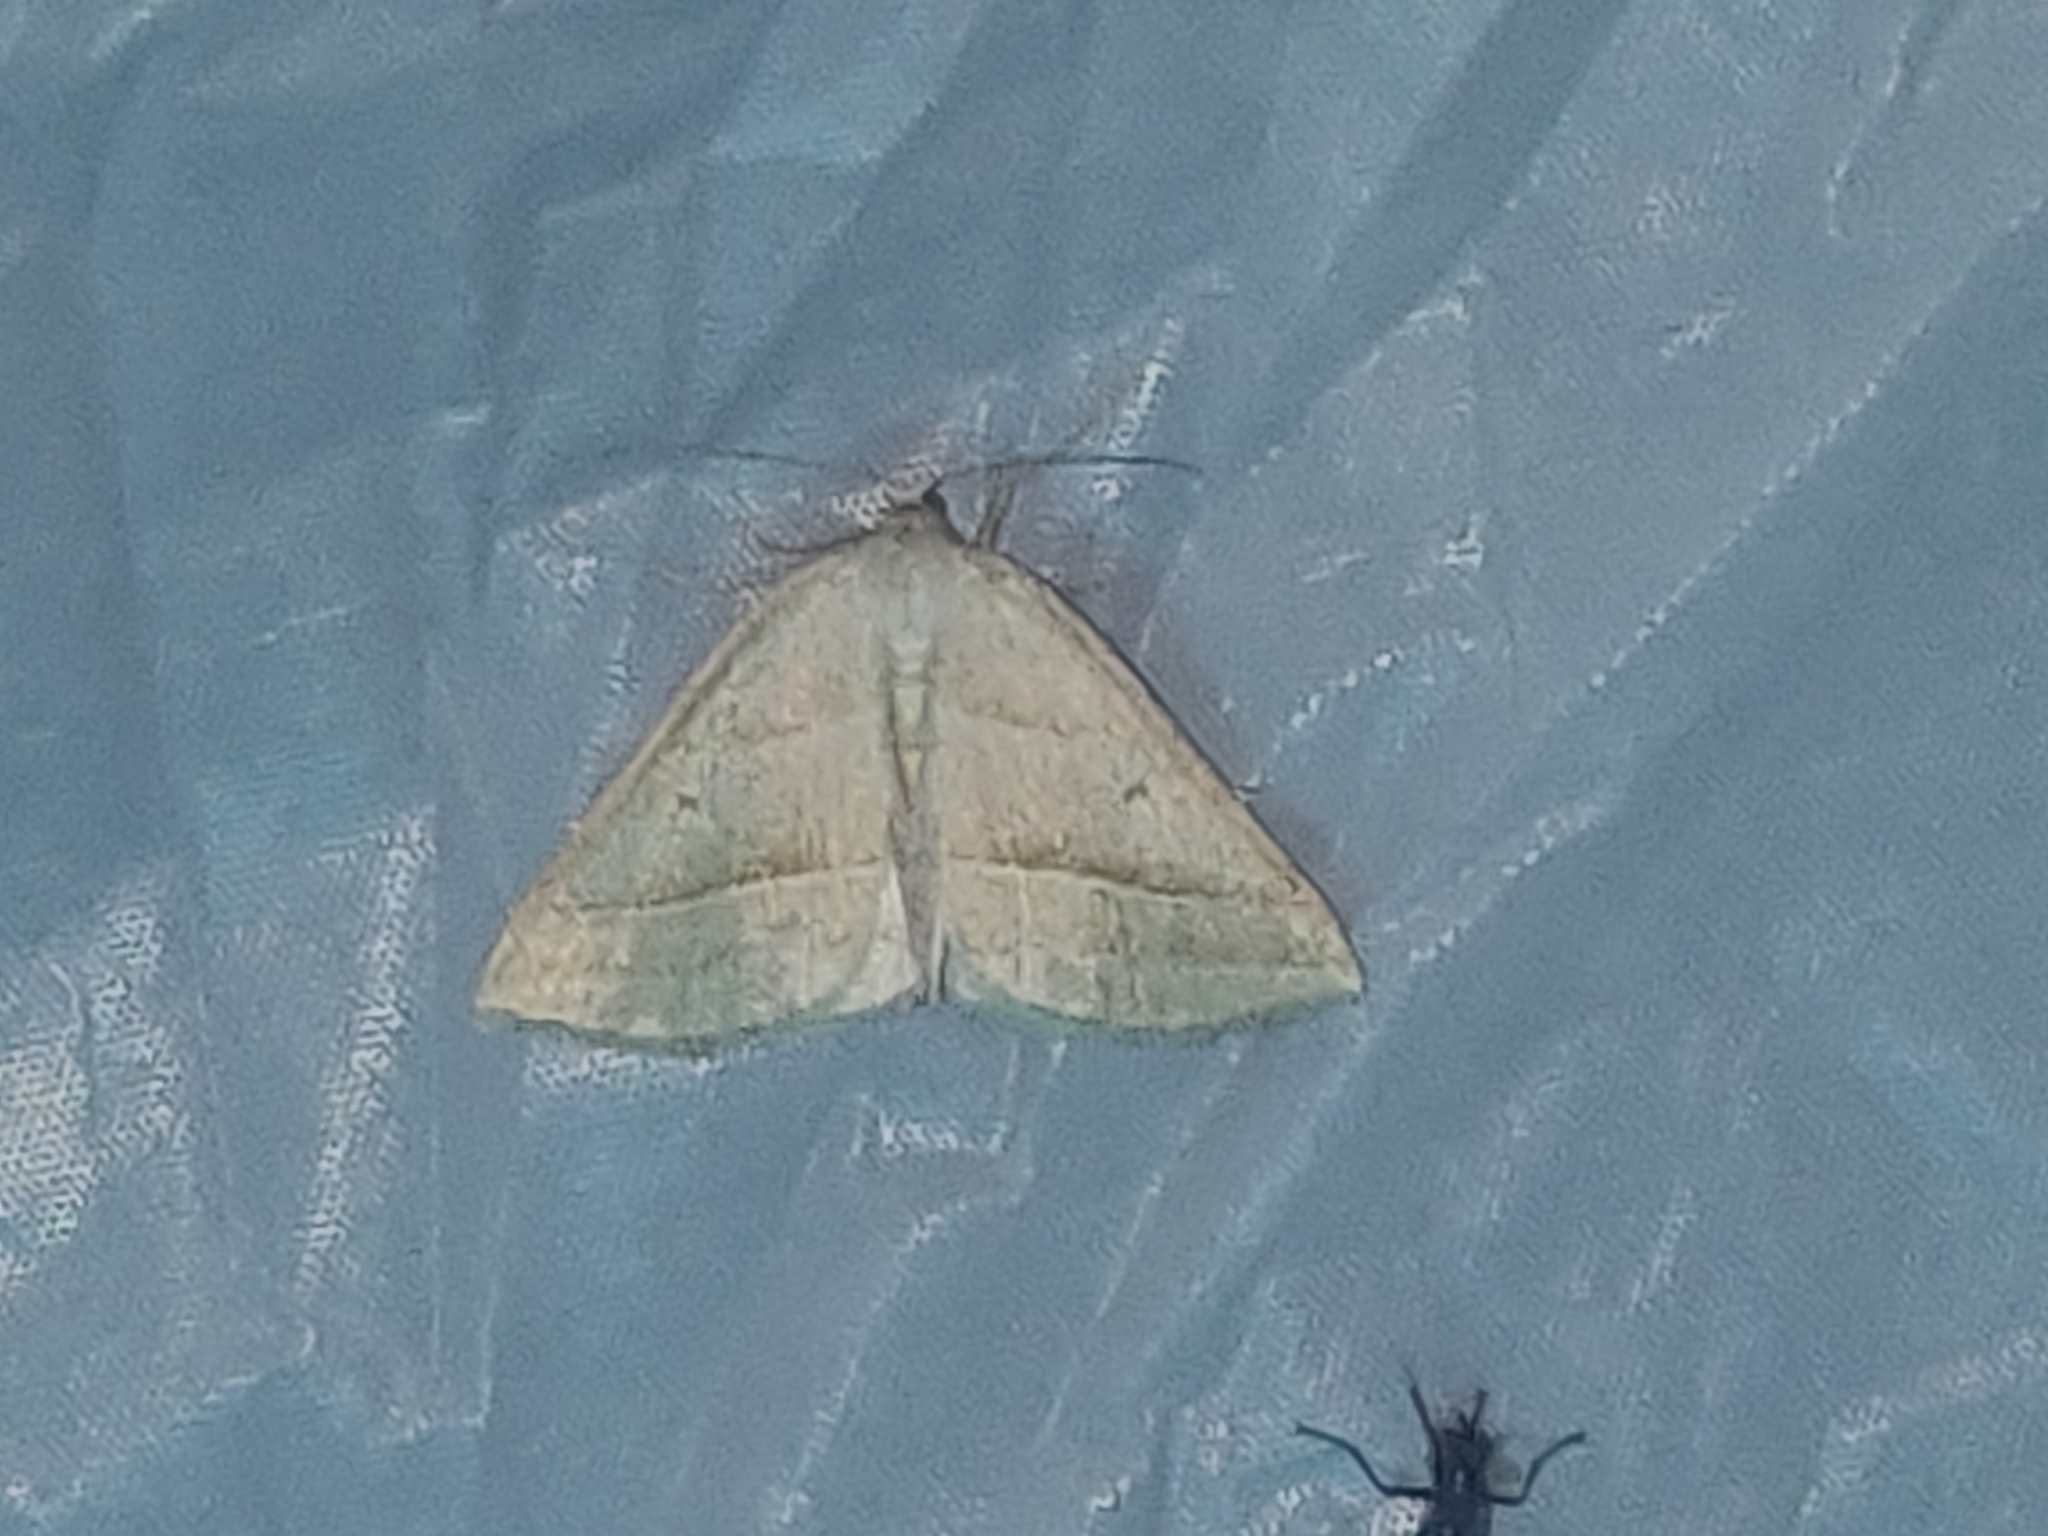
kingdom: Animalia
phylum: Arthropoda
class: Insecta
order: Lepidoptera
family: Pterophoridae
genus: Pterophorus
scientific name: Pterophorus Petrophora chlorosata
